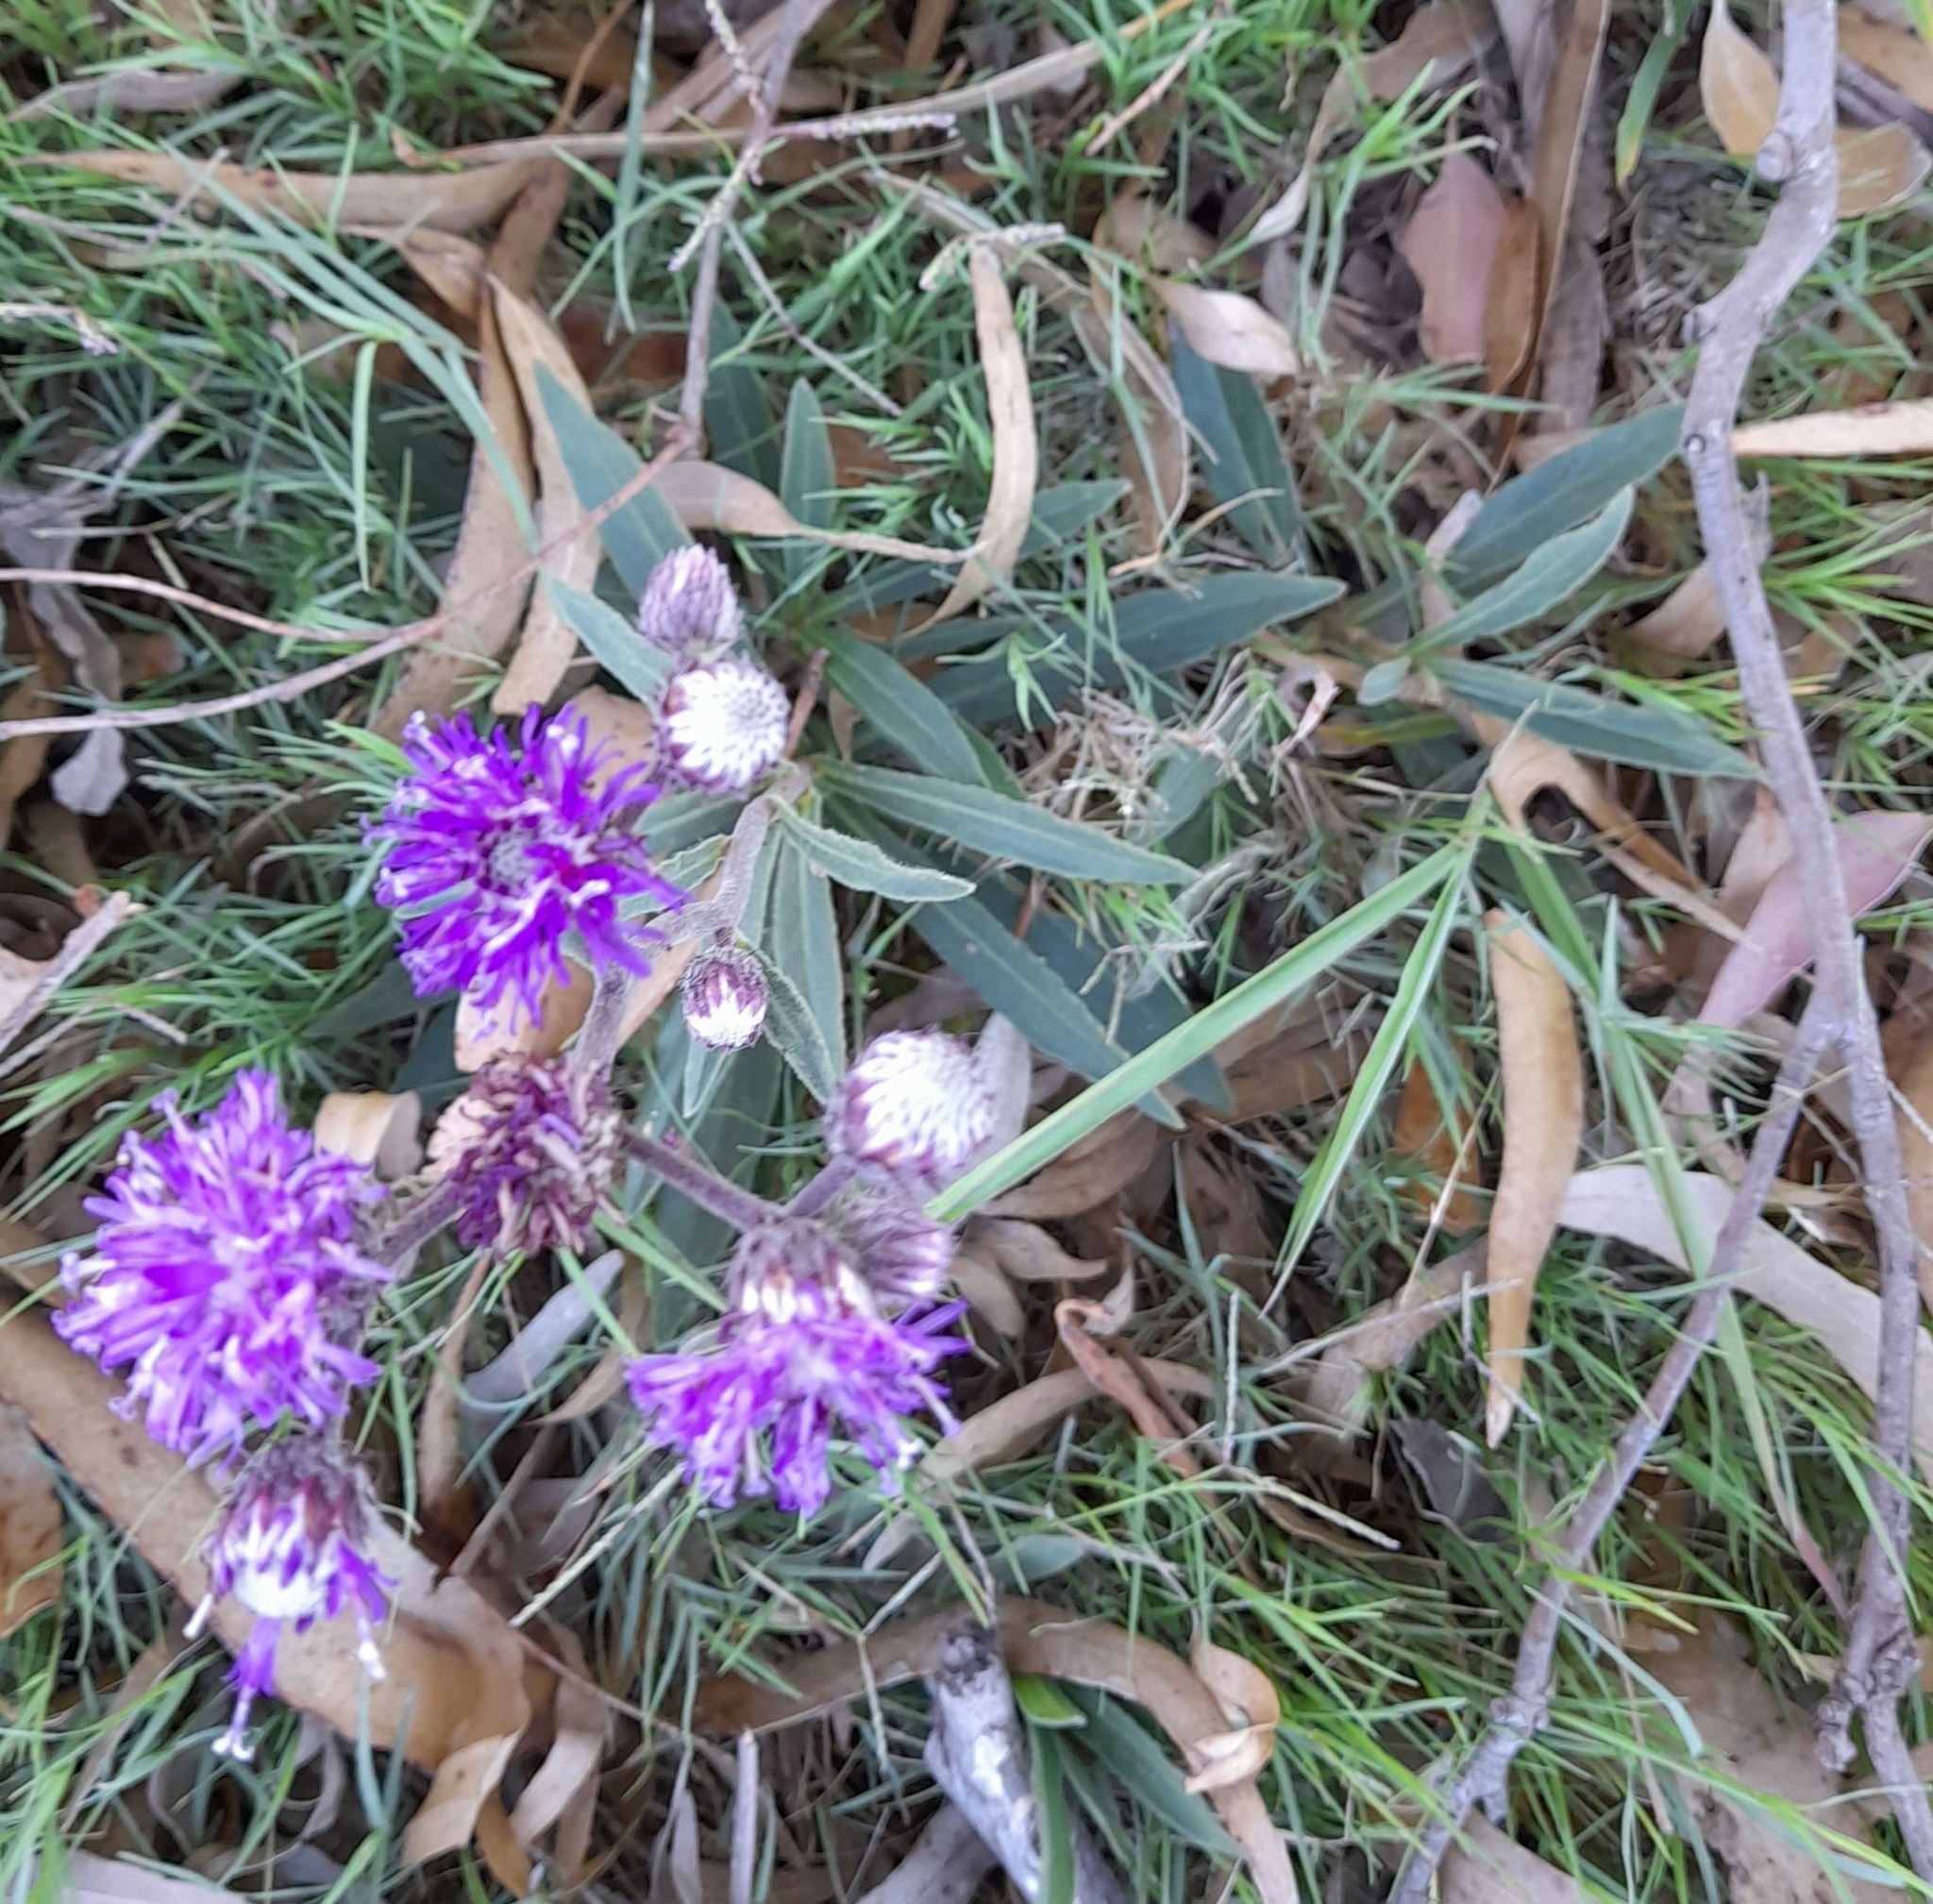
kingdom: Plantae
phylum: Tracheophyta
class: Magnoliopsida
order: Asterales
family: Asteraceae
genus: Chrysolaena
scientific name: Chrysolaena flexuosa
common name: Zig-zag vernonia
